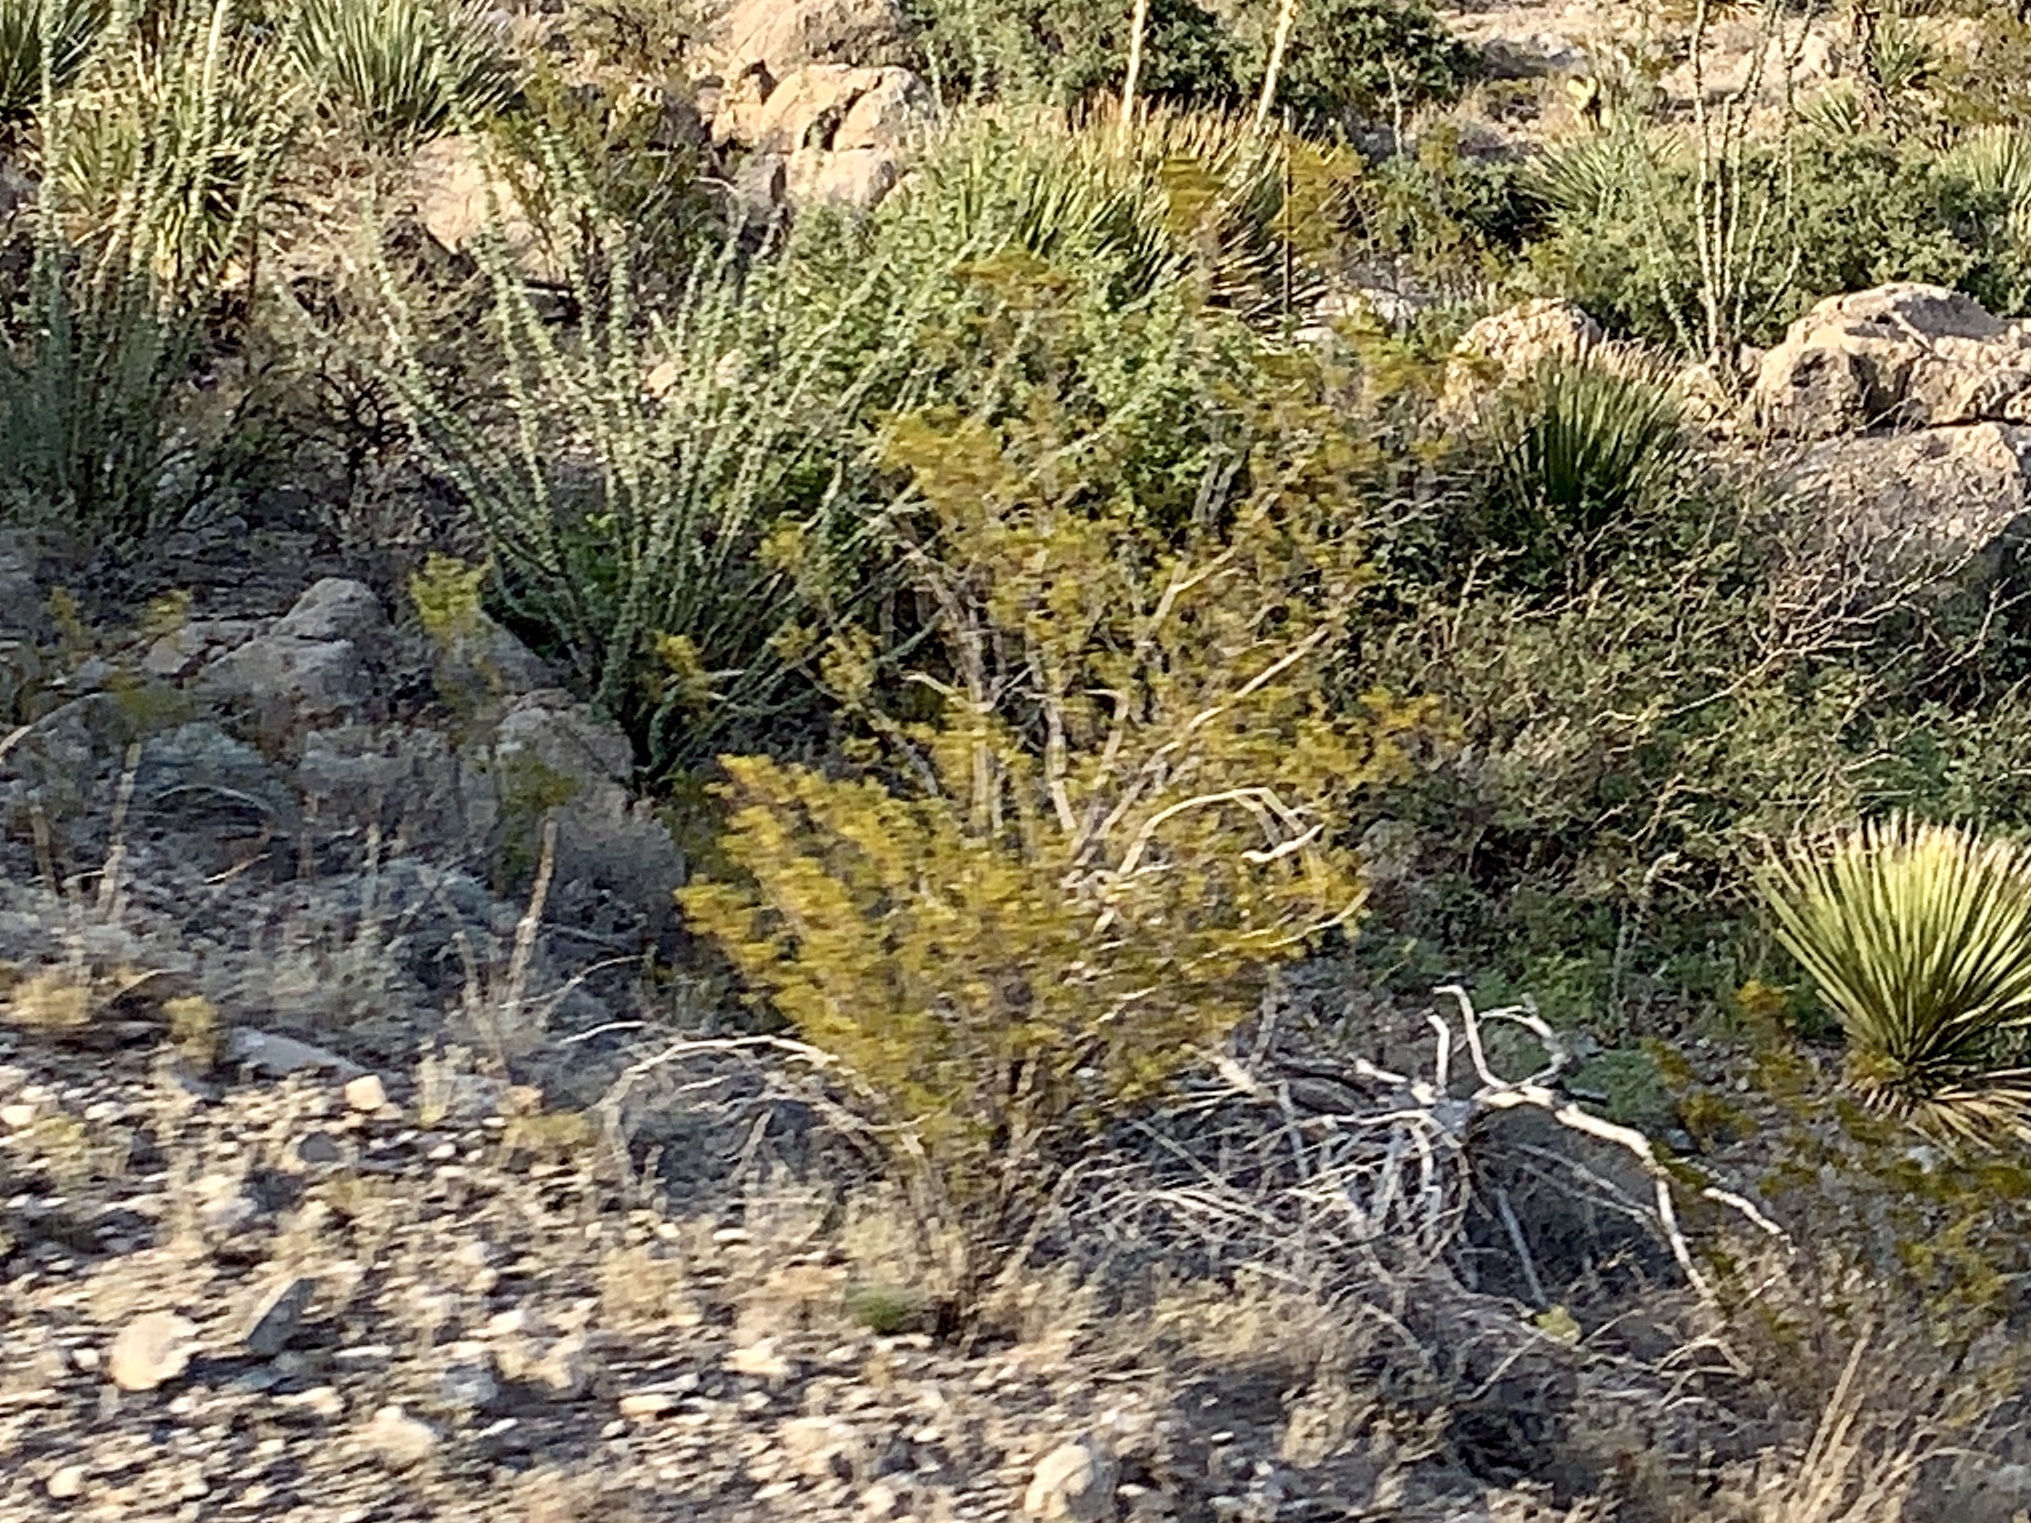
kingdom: Plantae
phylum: Tracheophyta
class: Magnoliopsida
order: Zygophyllales
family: Zygophyllaceae
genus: Larrea
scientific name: Larrea tridentata
